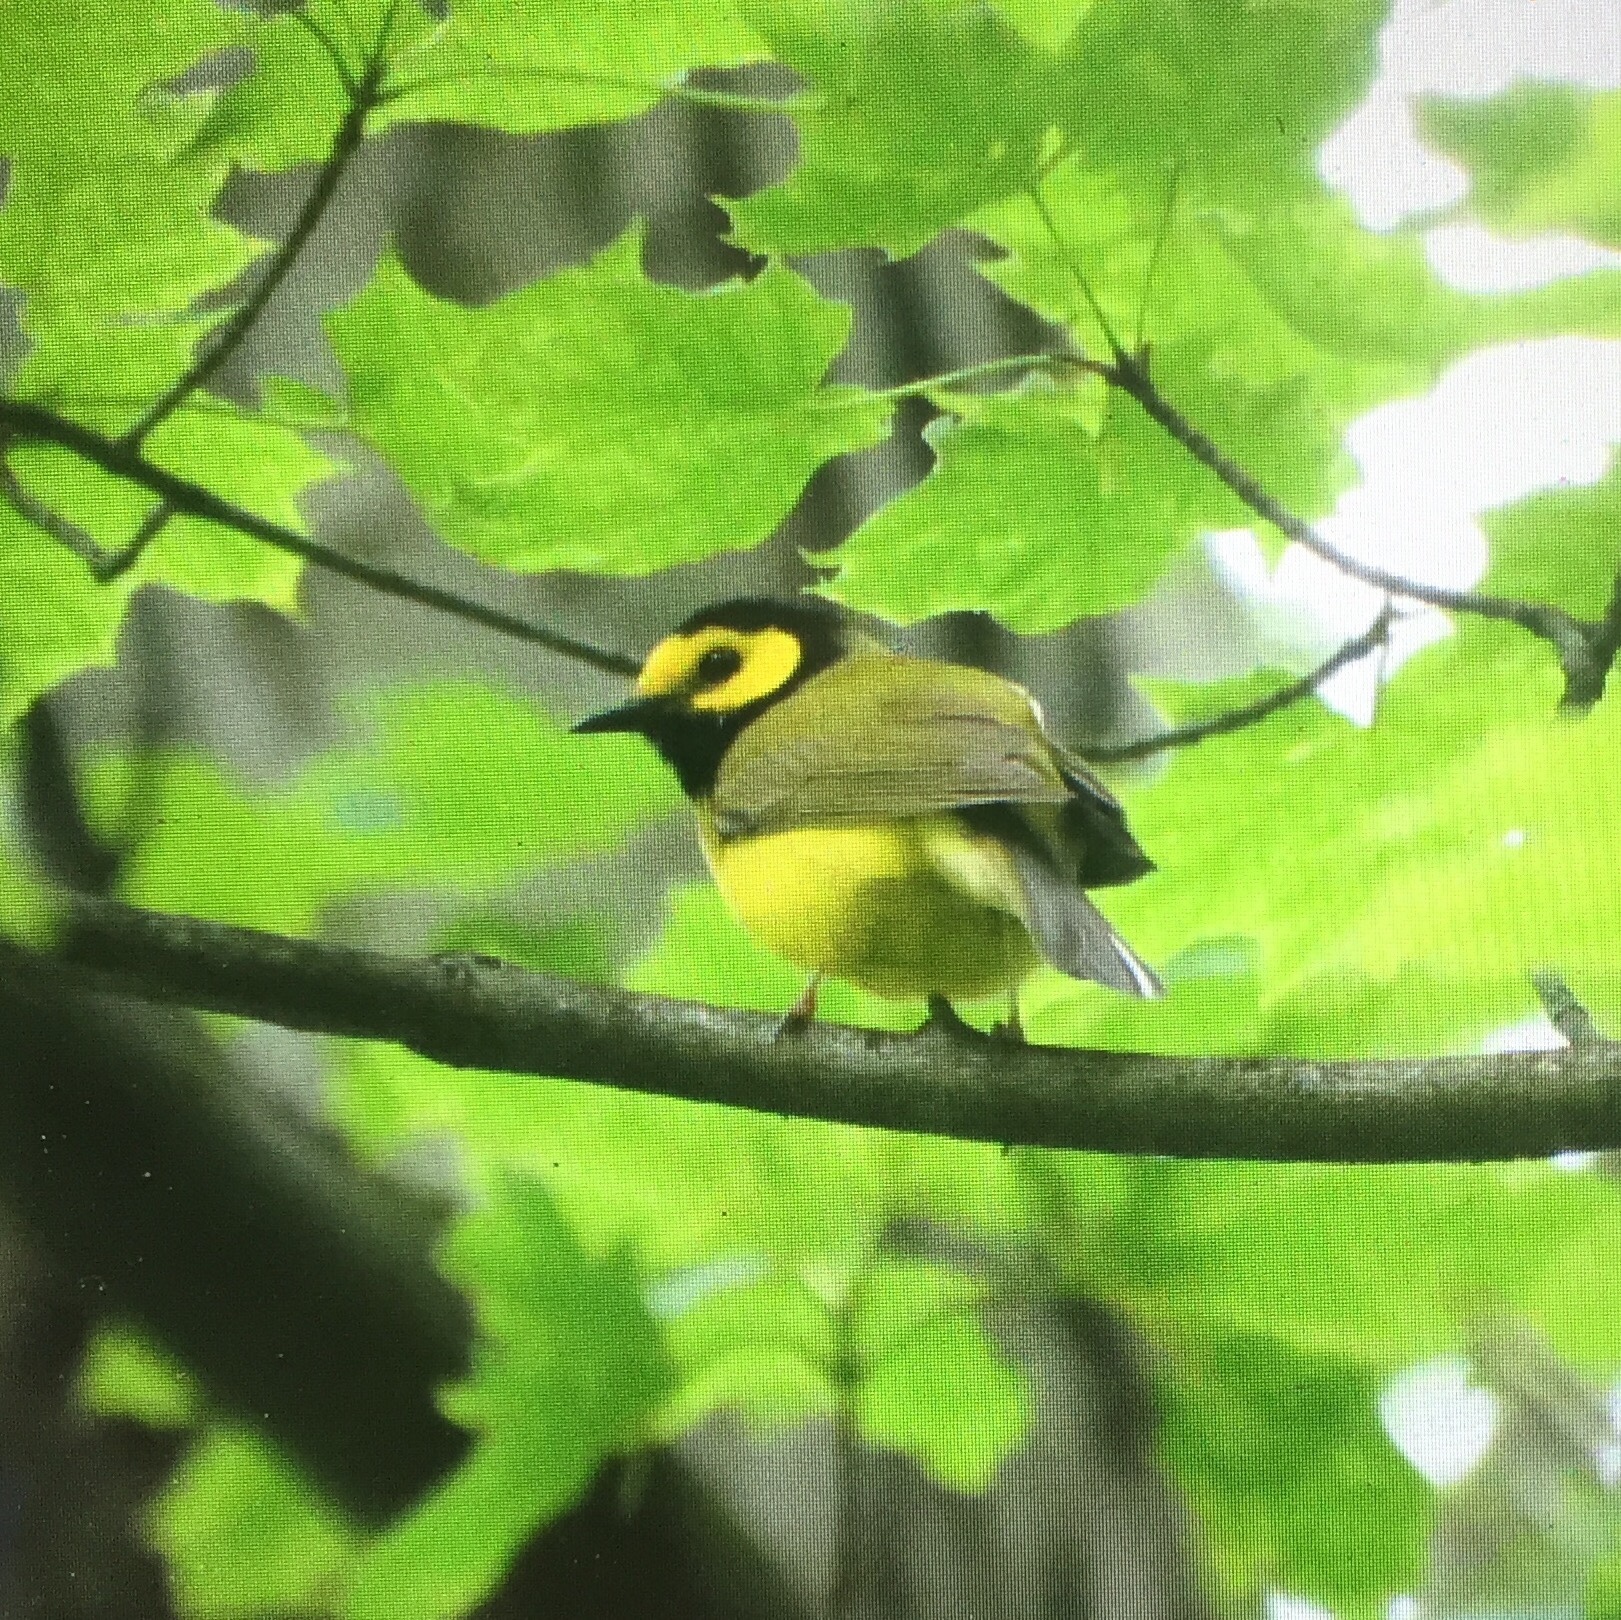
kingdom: Animalia
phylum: Chordata
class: Aves
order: Passeriformes
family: Parulidae
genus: Setophaga
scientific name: Setophaga citrina
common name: Hooded warbler
